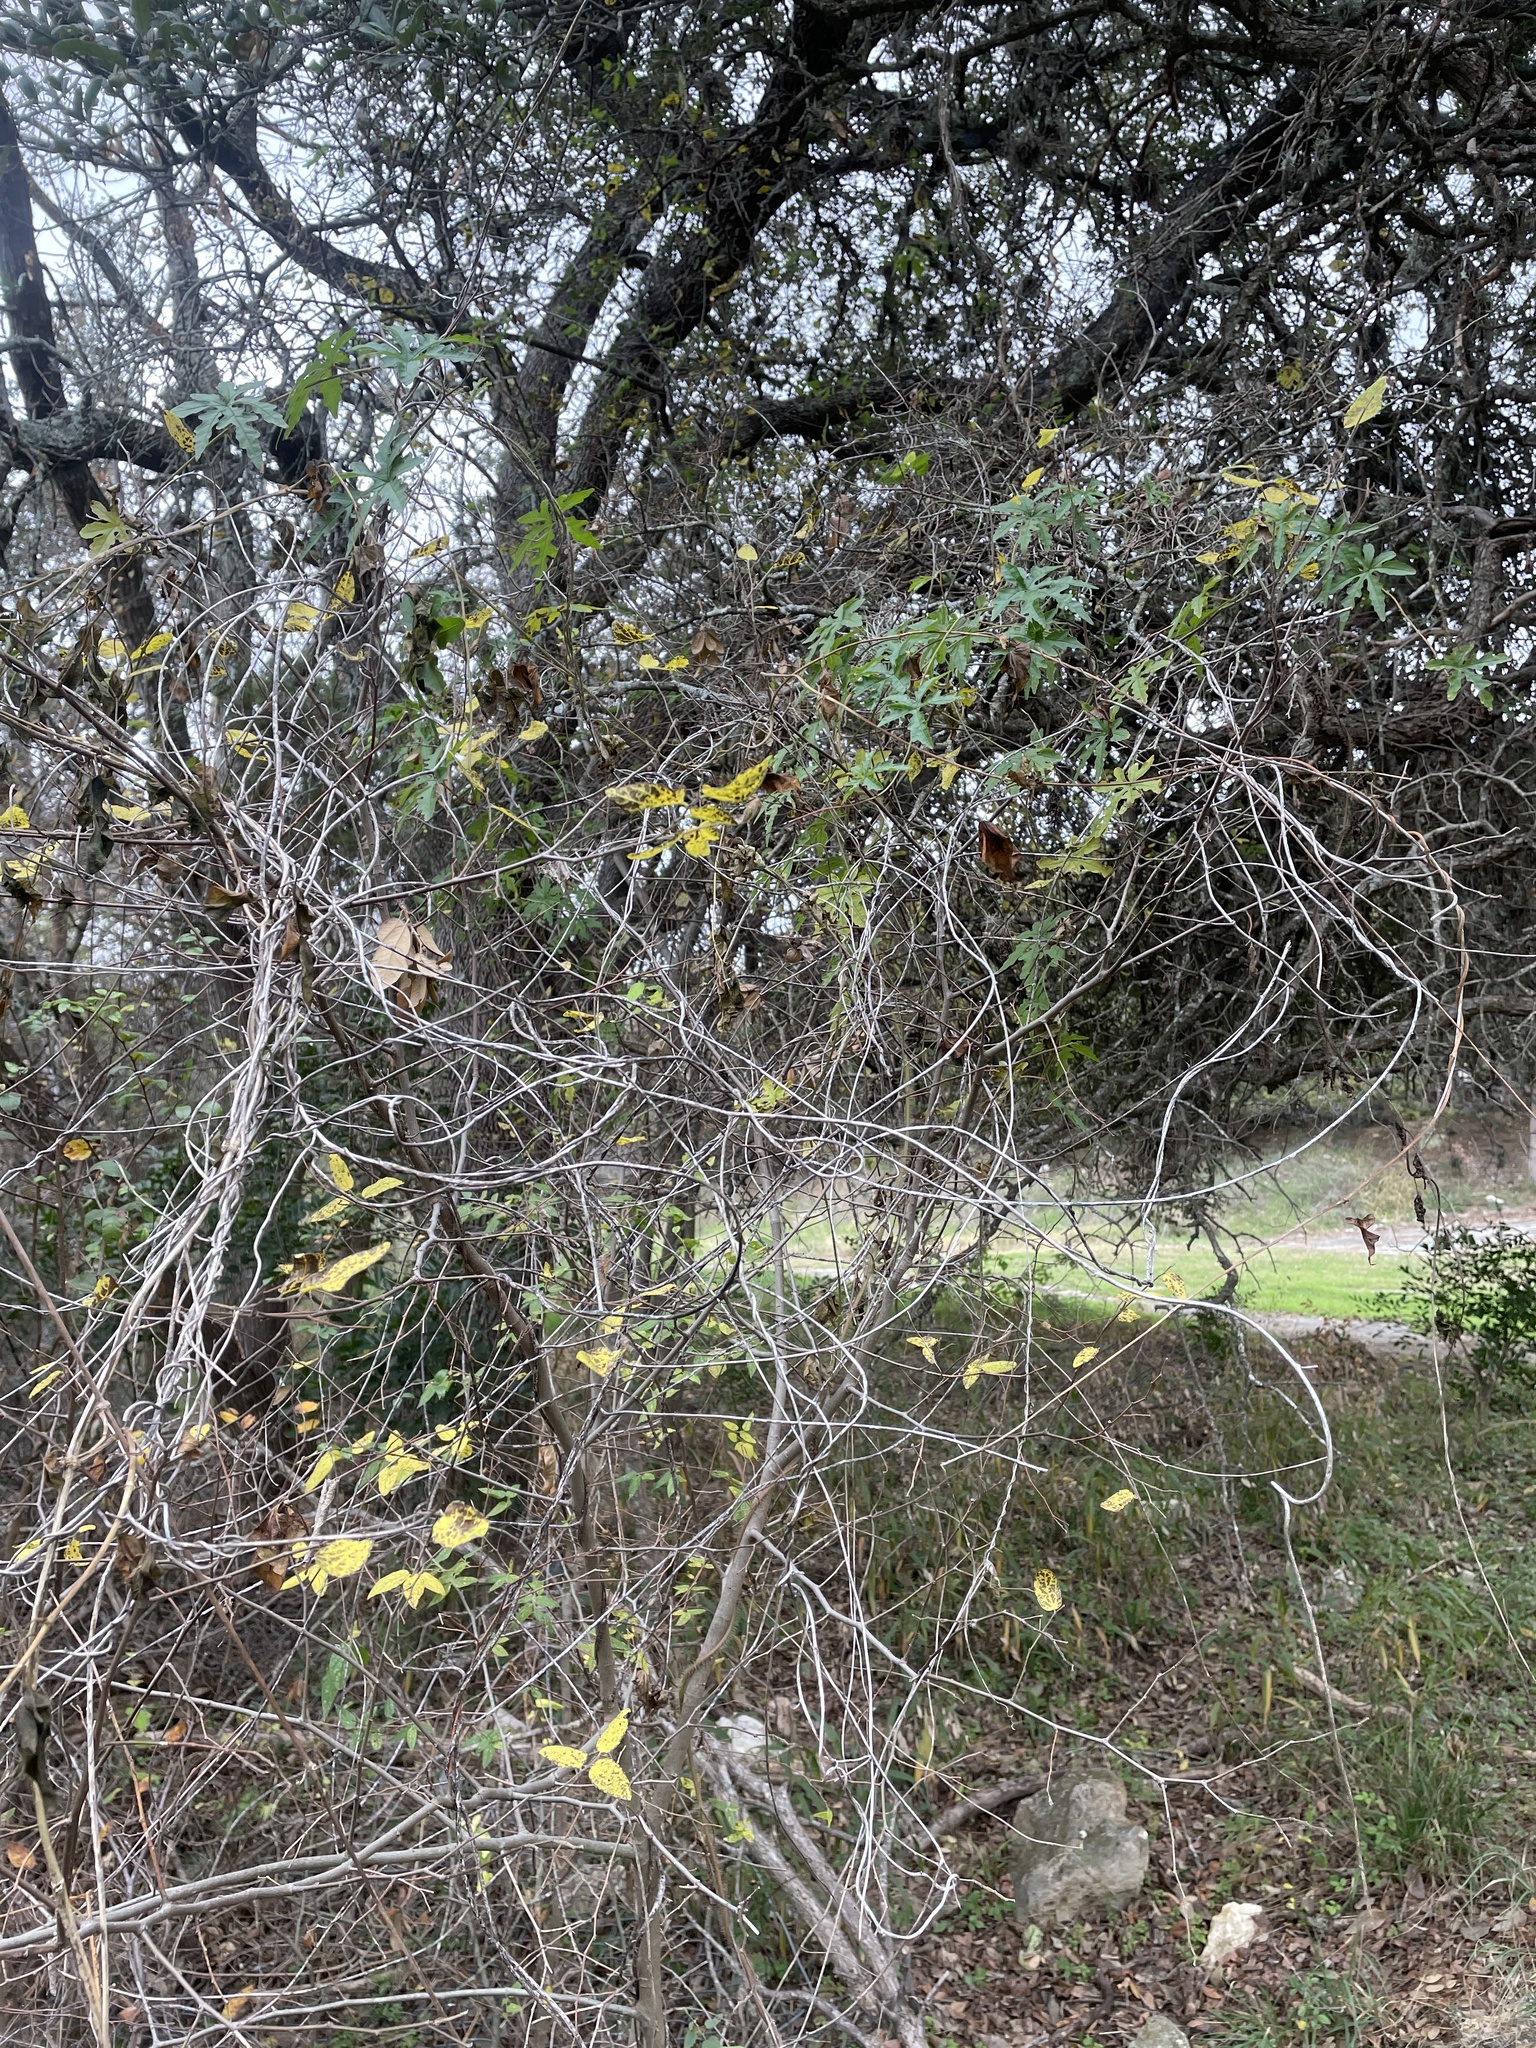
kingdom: Plantae
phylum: Tracheophyta
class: Magnoliopsida
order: Solanales
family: Convolvulaceae
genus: Distimake
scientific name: Distimake dissectus
